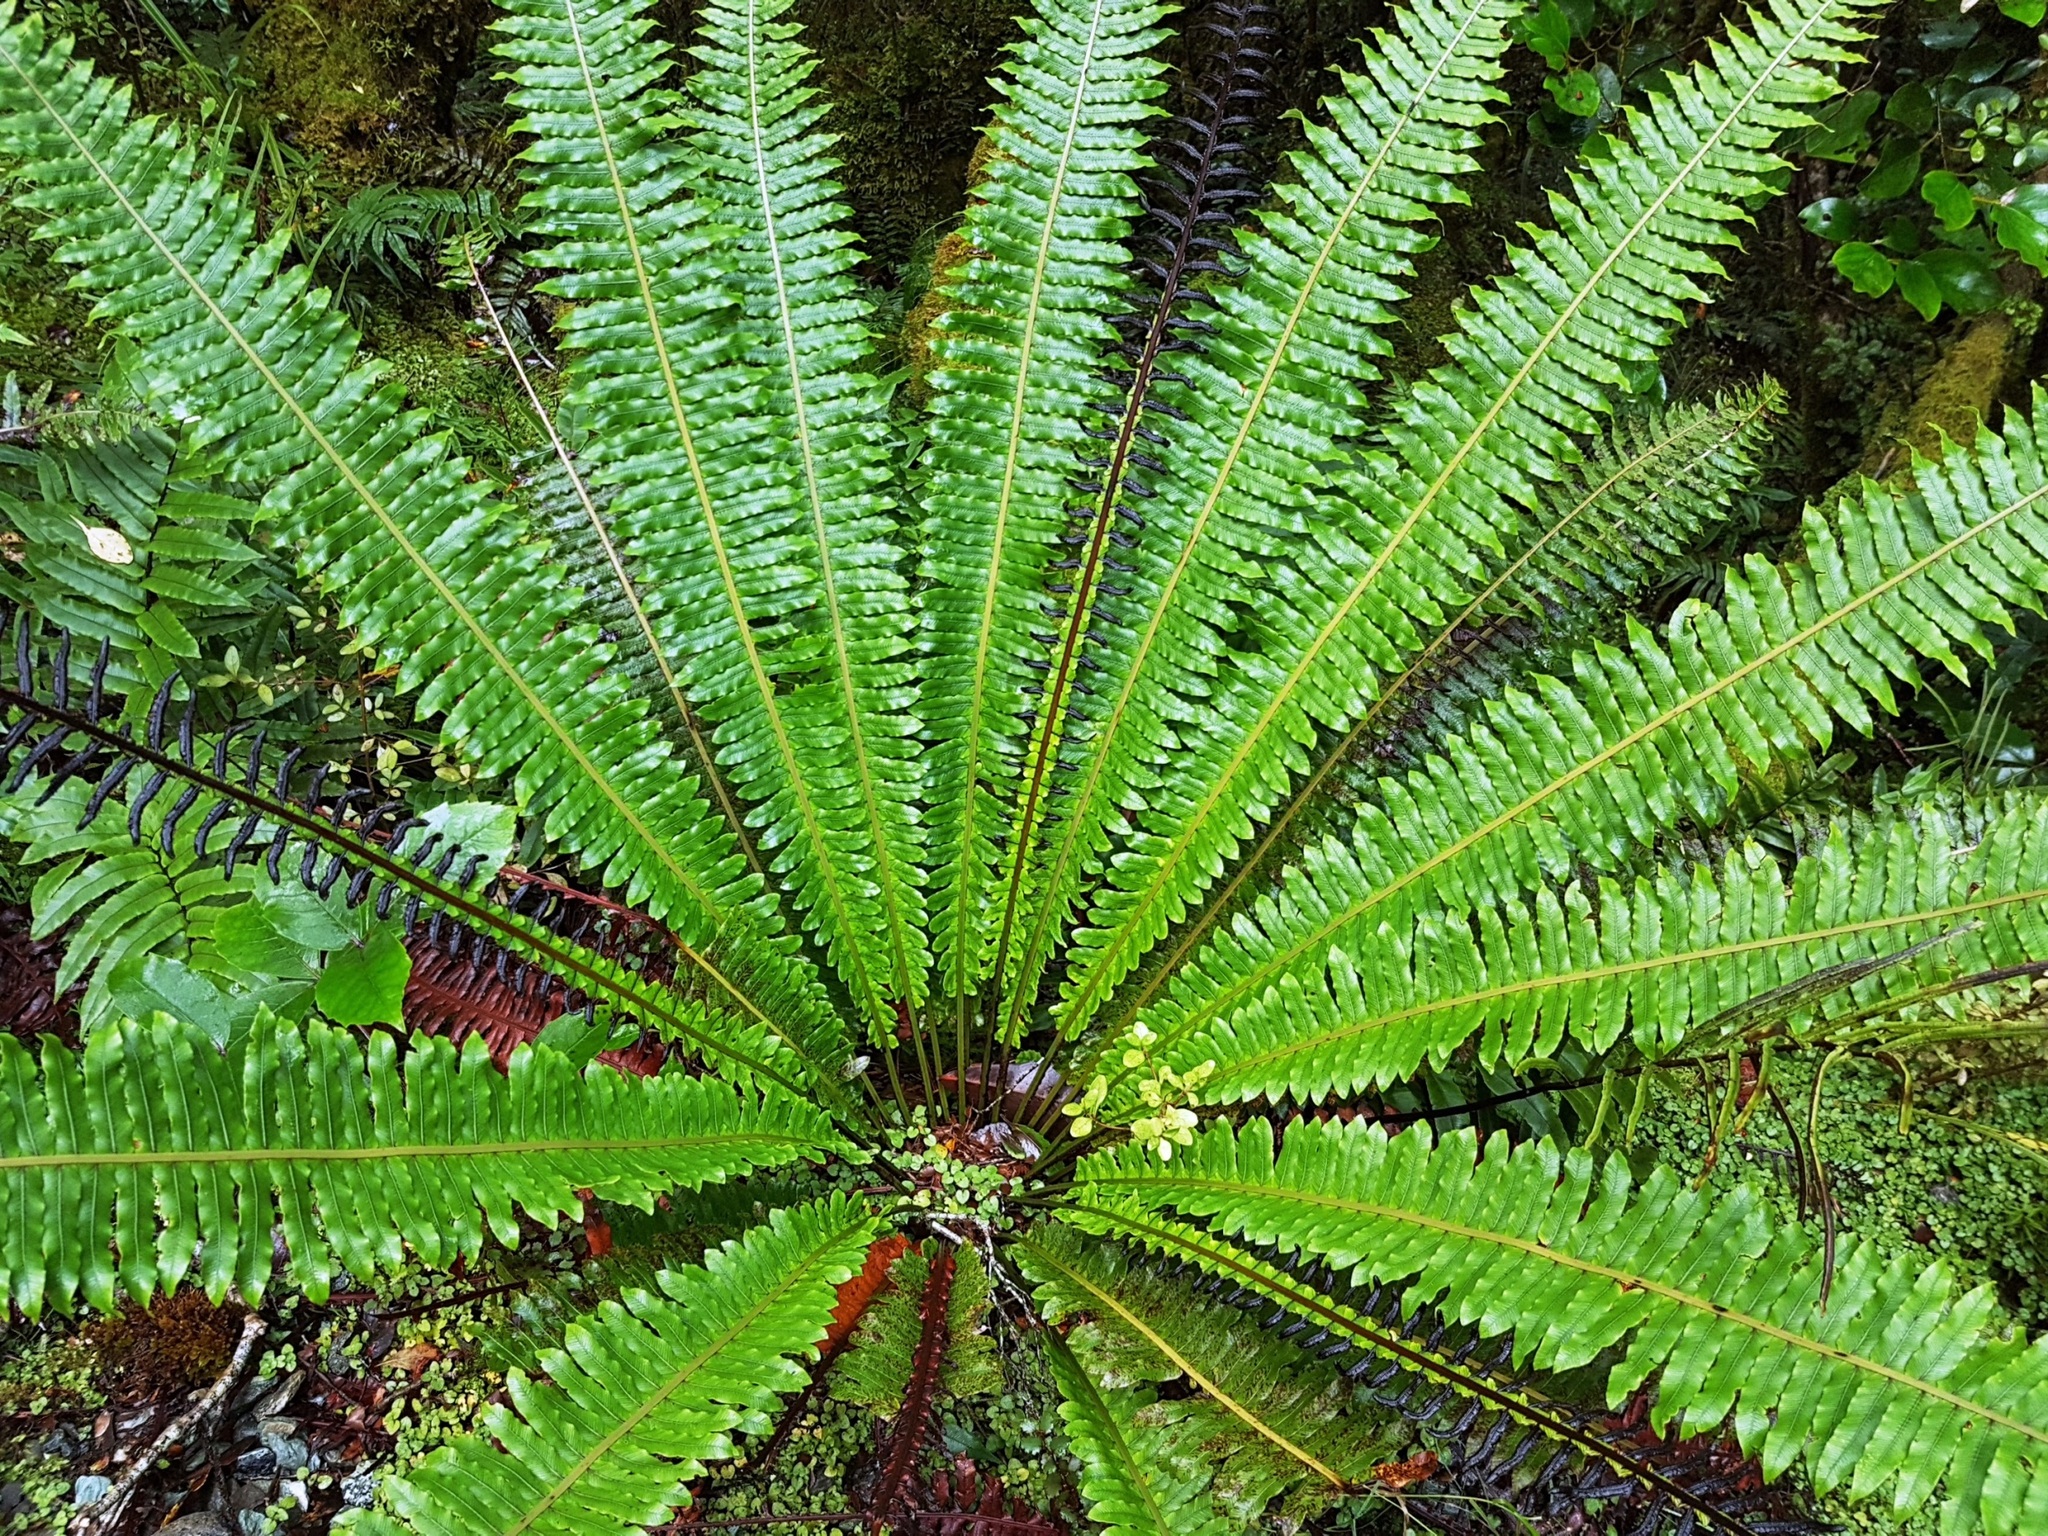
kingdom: Plantae
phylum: Tracheophyta
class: Polypodiopsida
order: Polypodiales
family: Blechnaceae
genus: Lomaria
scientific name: Lomaria discolor
